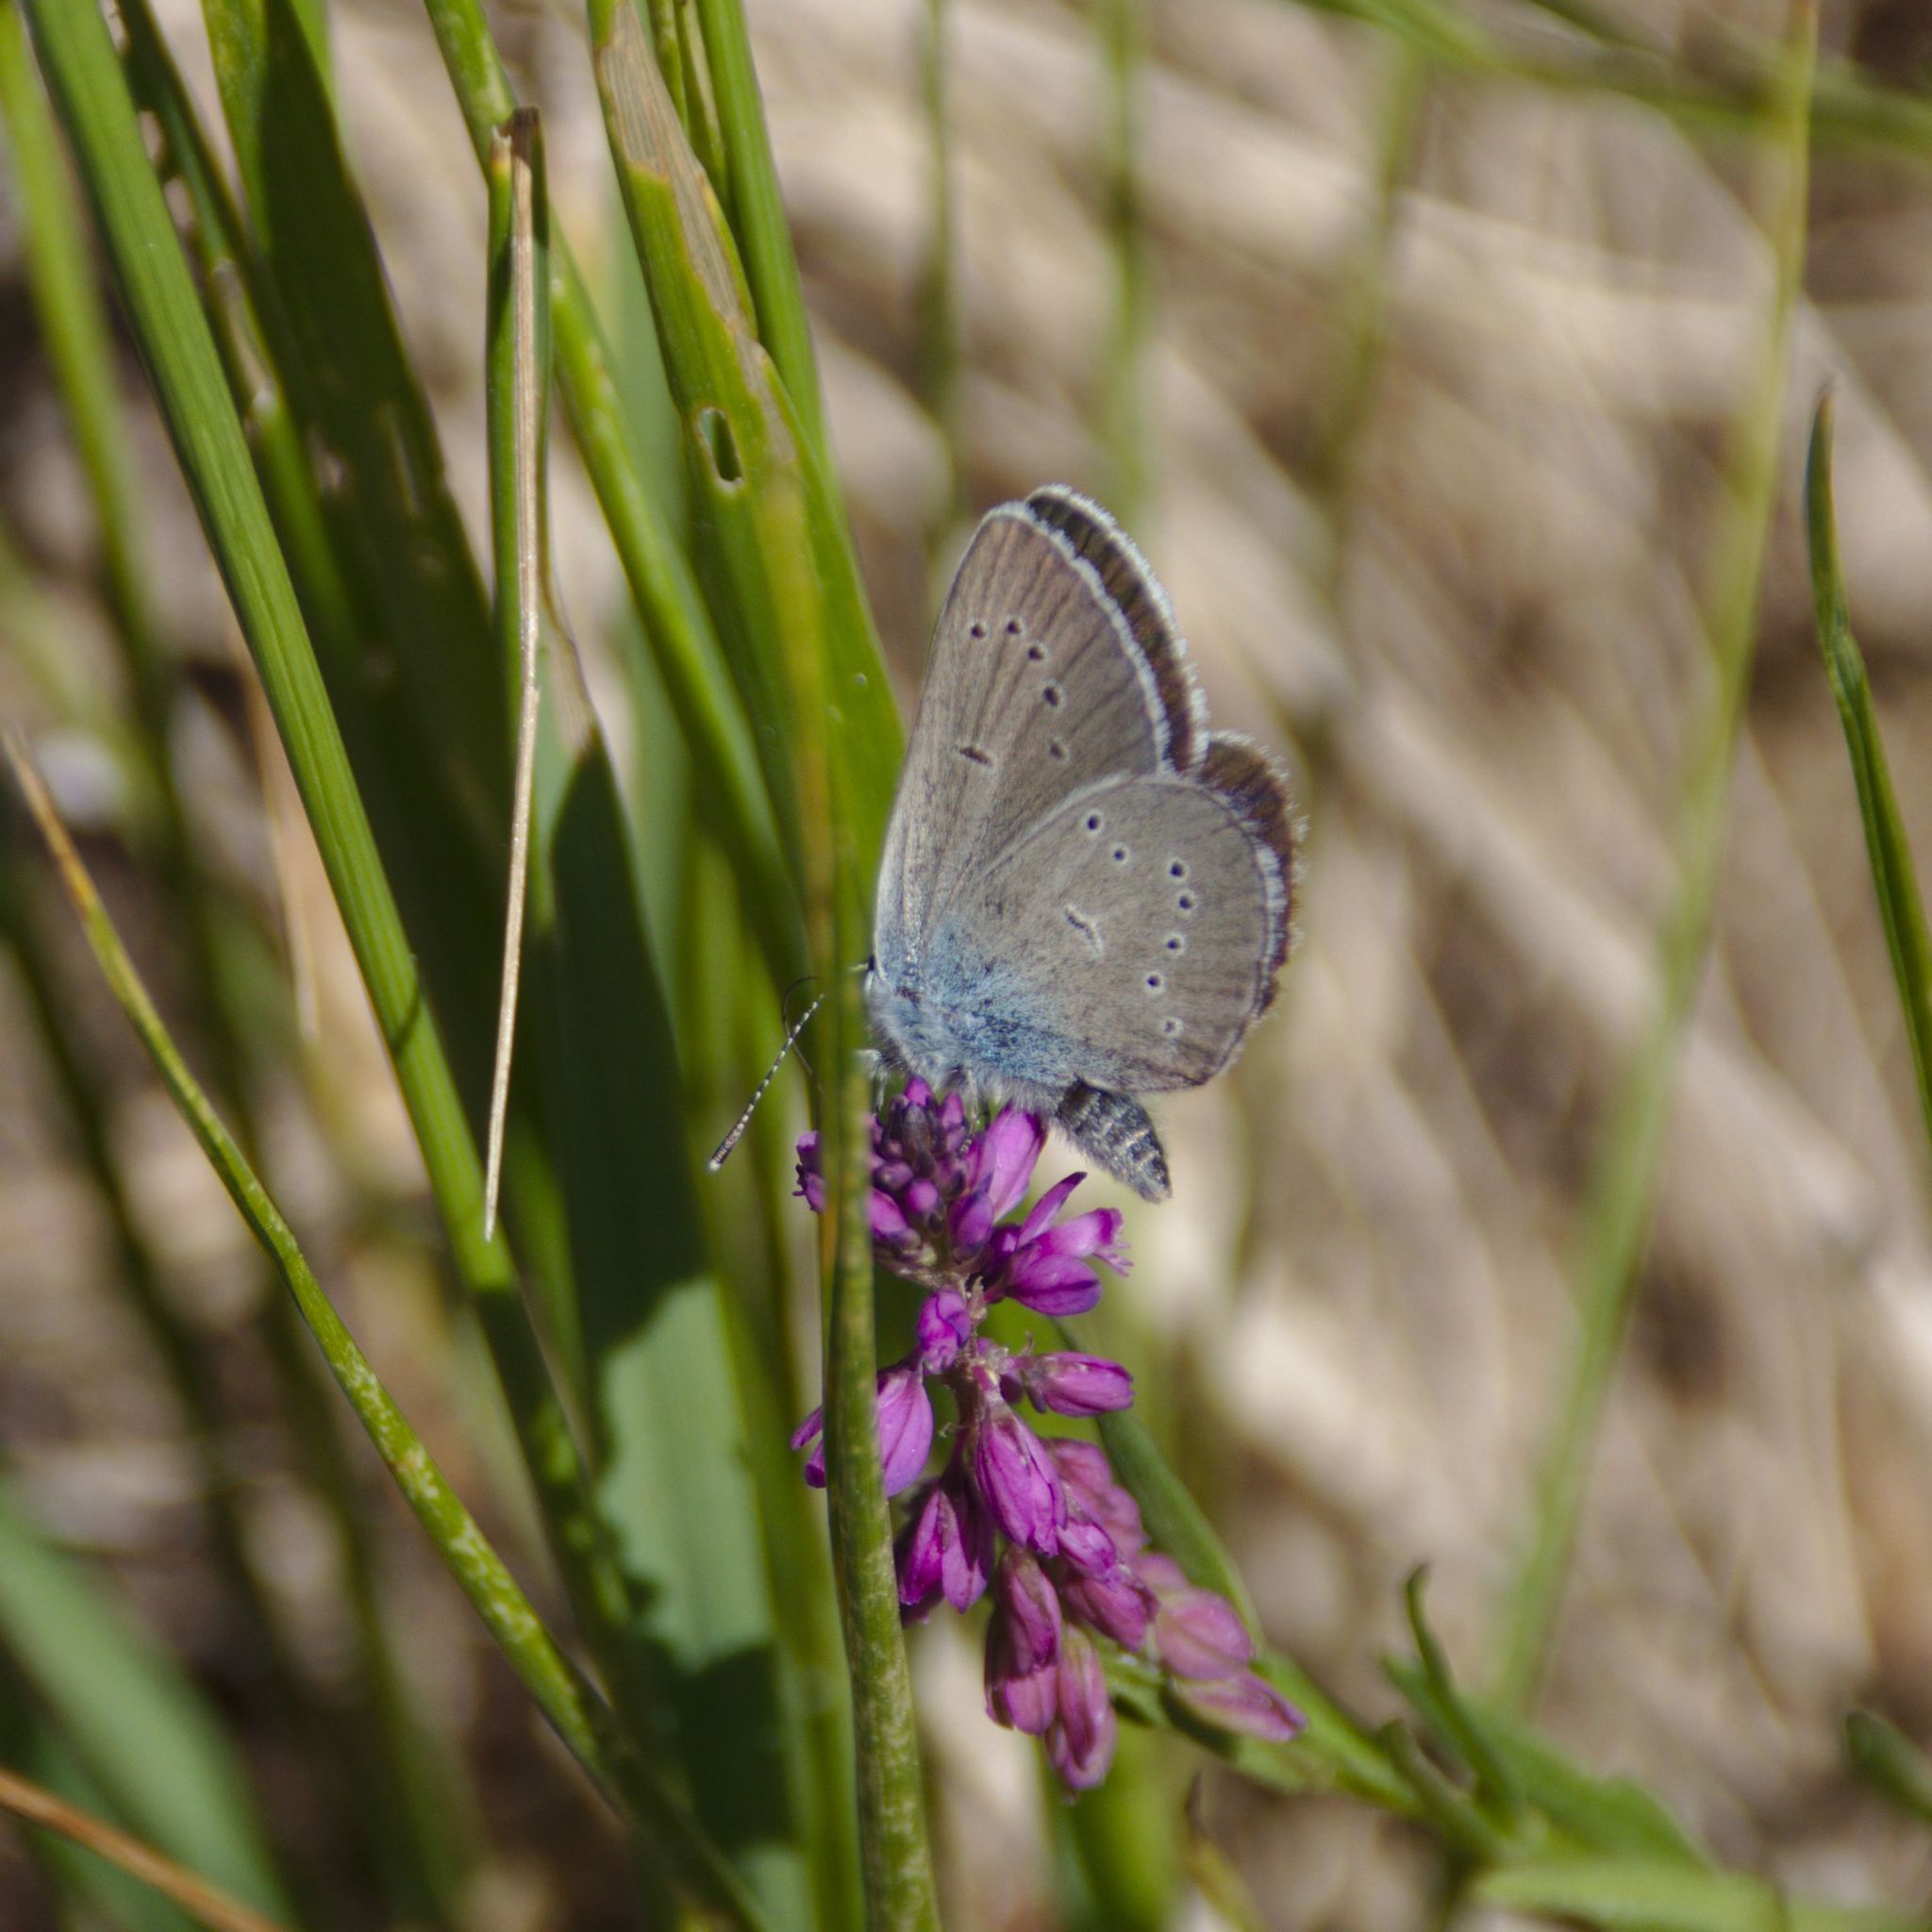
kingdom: Animalia
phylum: Arthropoda
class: Insecta
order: Lepidoptera
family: Lycaenidae
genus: Cyaniris
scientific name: Cyaniris semiargus
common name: Mazarine blue
